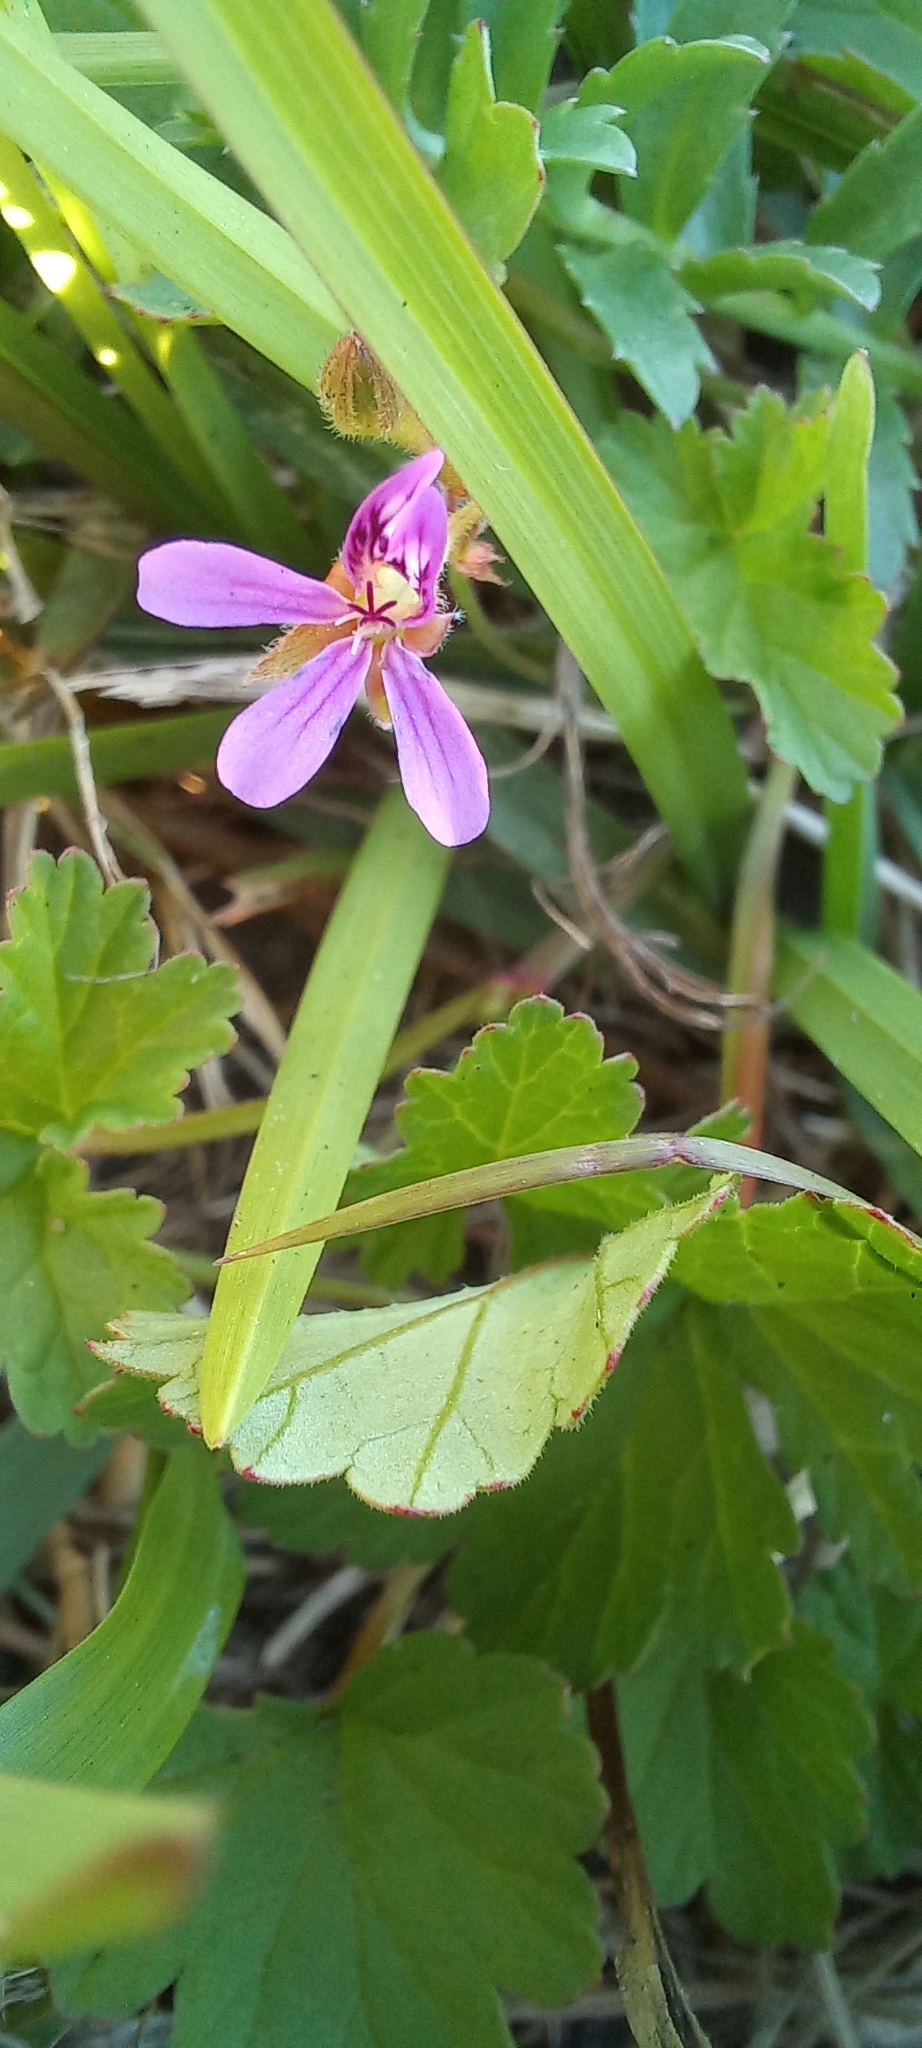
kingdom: Plantae
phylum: Tracheophyta
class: Magnoliopsida
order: Geraniales
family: Geraniaceae
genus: Pelargonium
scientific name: Pelargonium grossularioides
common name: Gooseberry geranium
